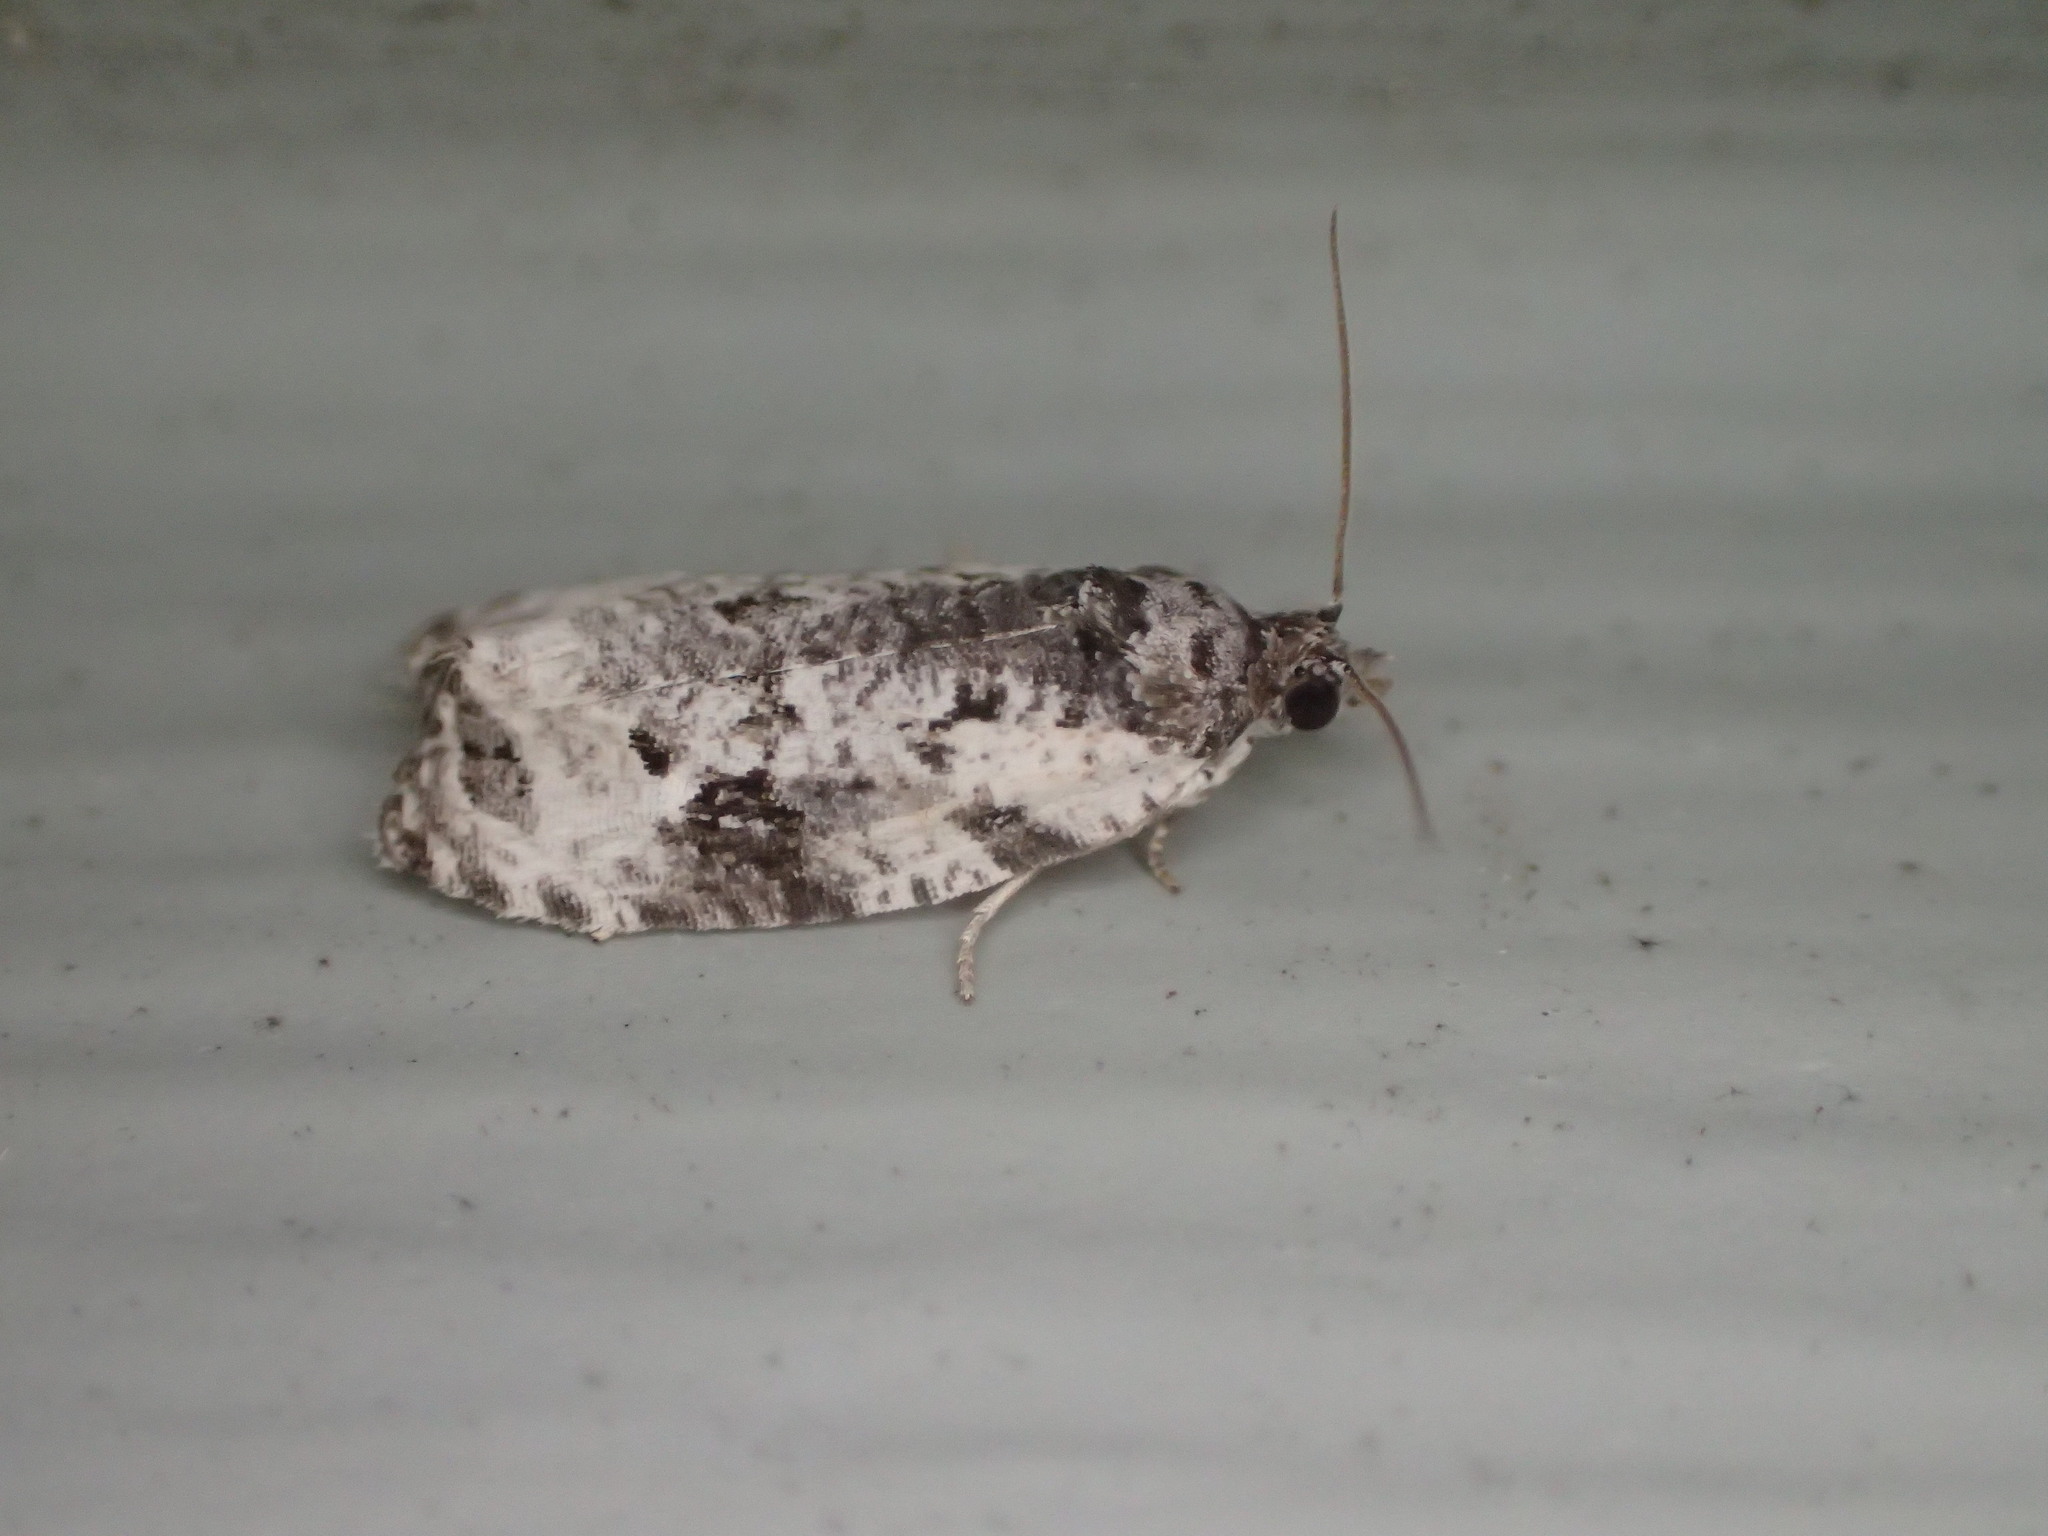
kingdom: Animalia
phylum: Arthropoda
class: Insecta
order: Lepidoptera
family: Tortricidae
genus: Apotomis
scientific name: Apotomis albeolana
